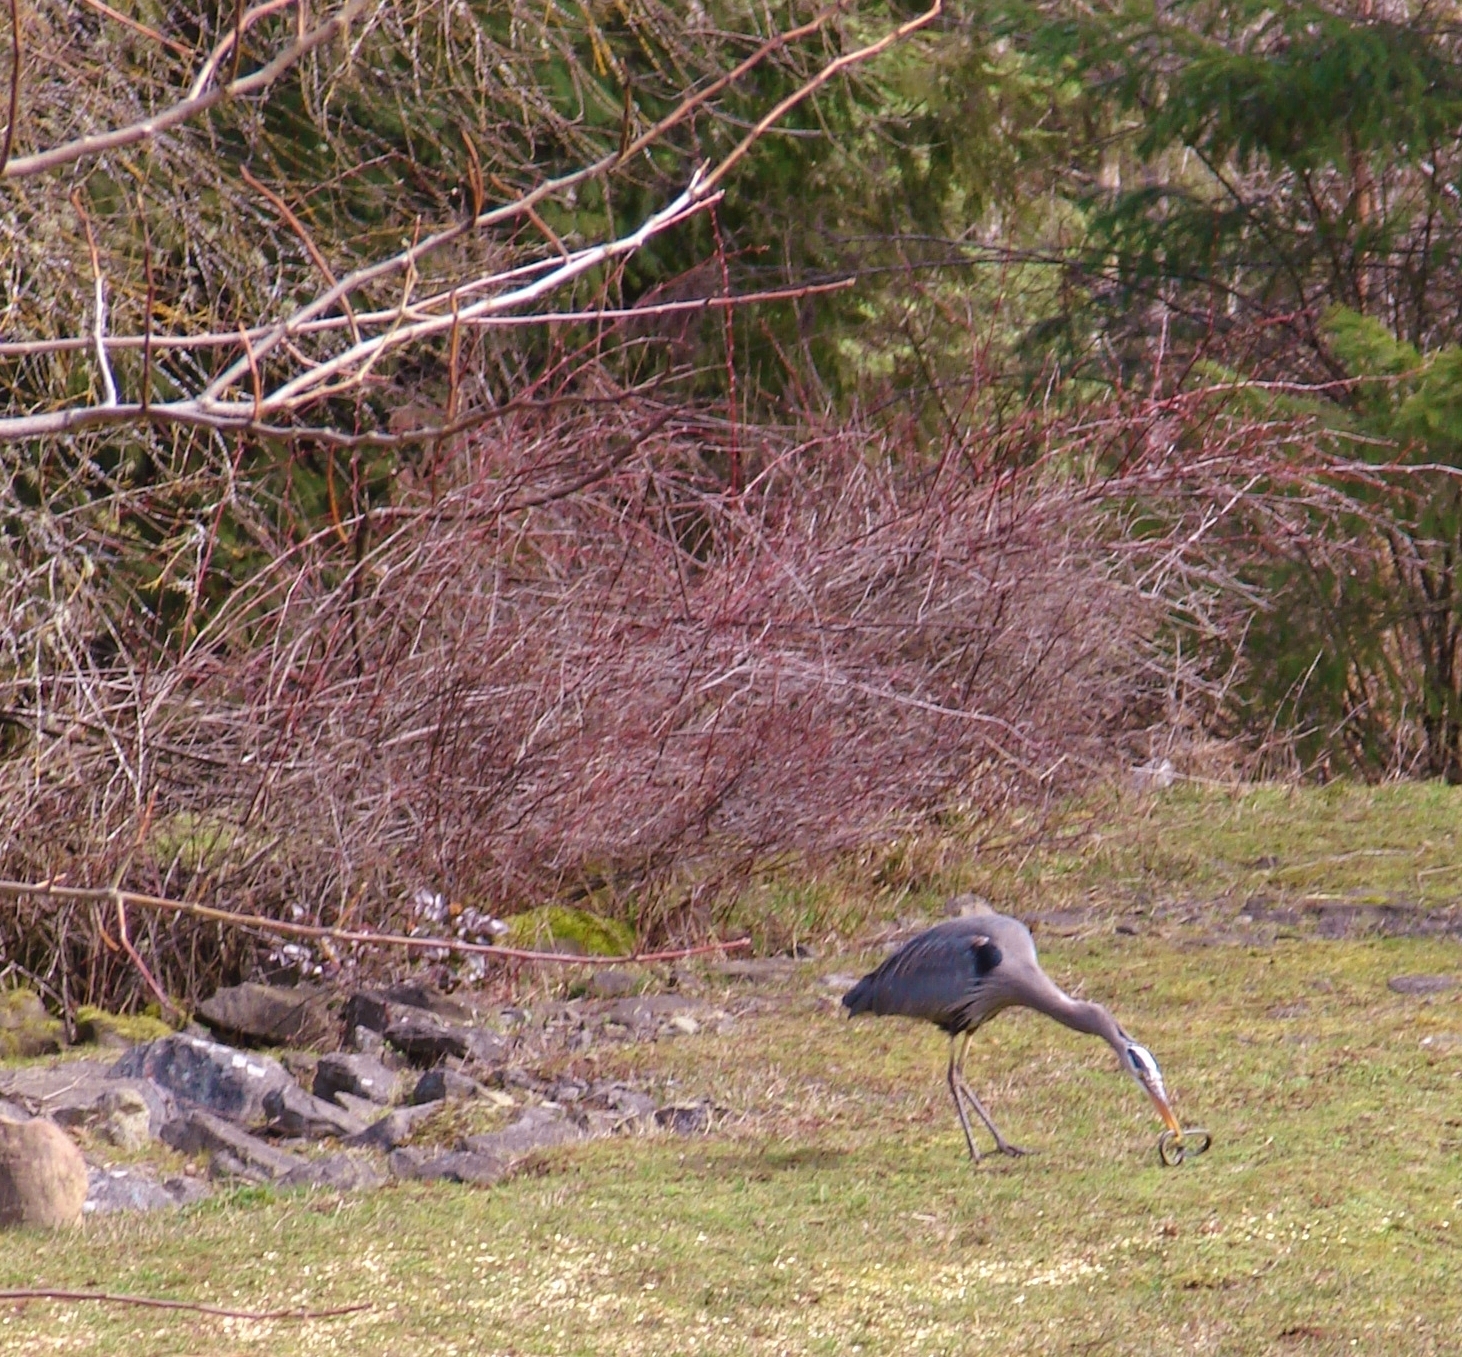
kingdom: Animalia
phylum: Chordata
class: Aves
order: Pelecaniformes
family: Ardeidae
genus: Ardea
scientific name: Ardea herodias
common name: Great blue heron
